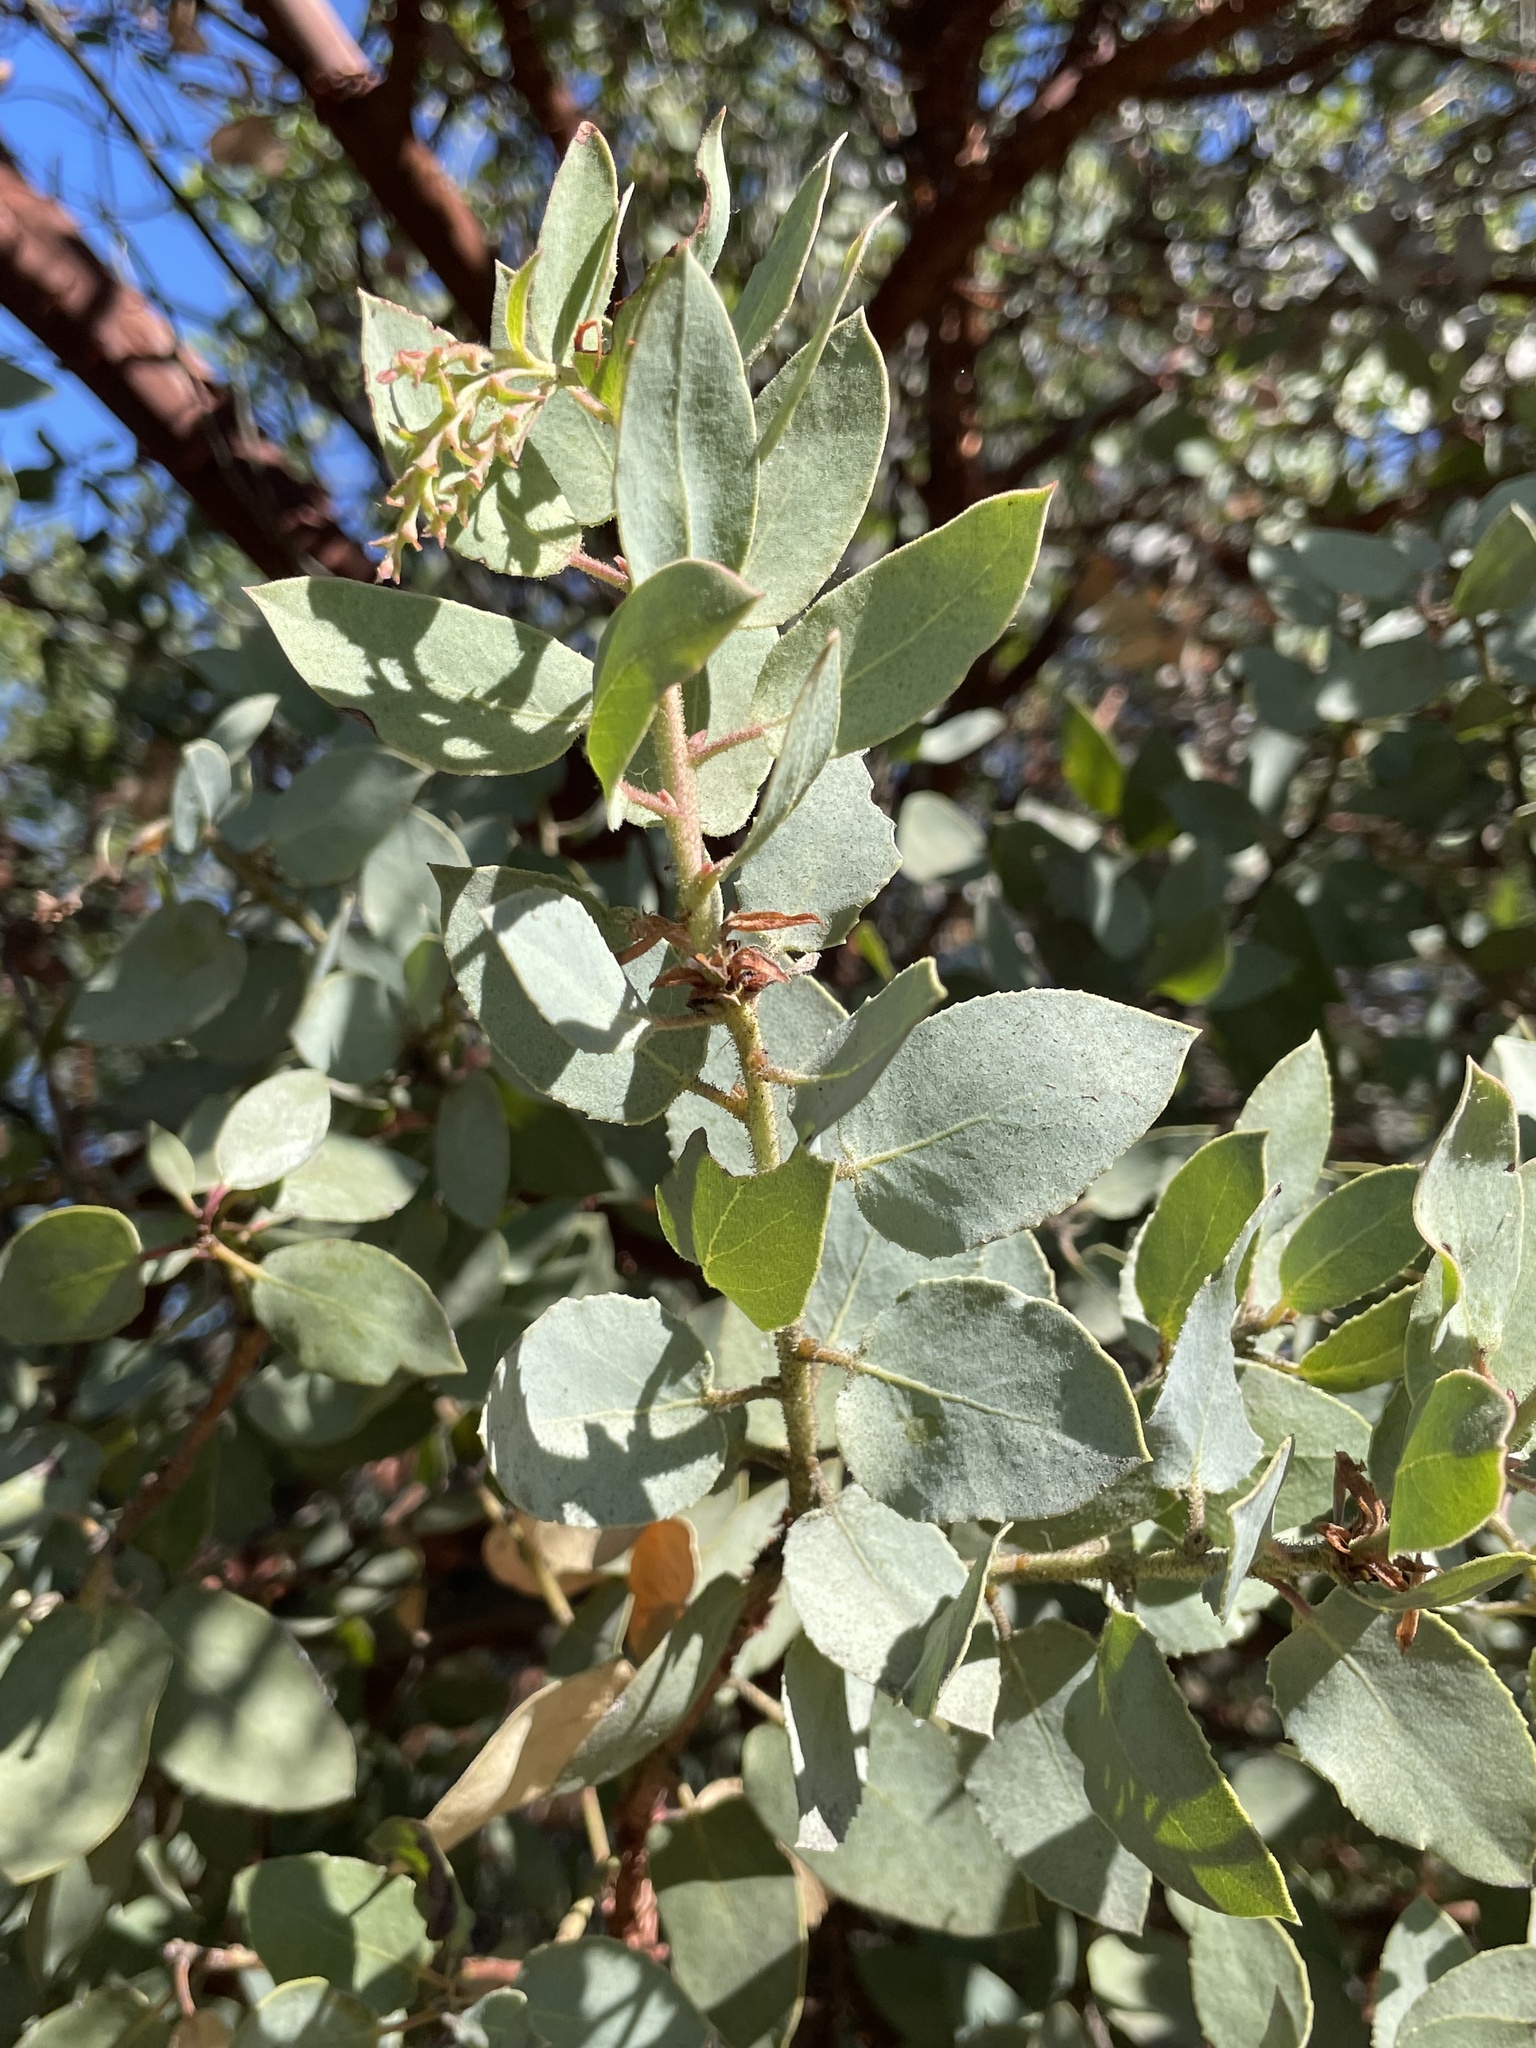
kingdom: Plantae
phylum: Tracheophyta
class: Magnoliopsida
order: Ericales
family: Ericaceae
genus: Arctostaphylos
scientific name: Arctostaphylos glauca
